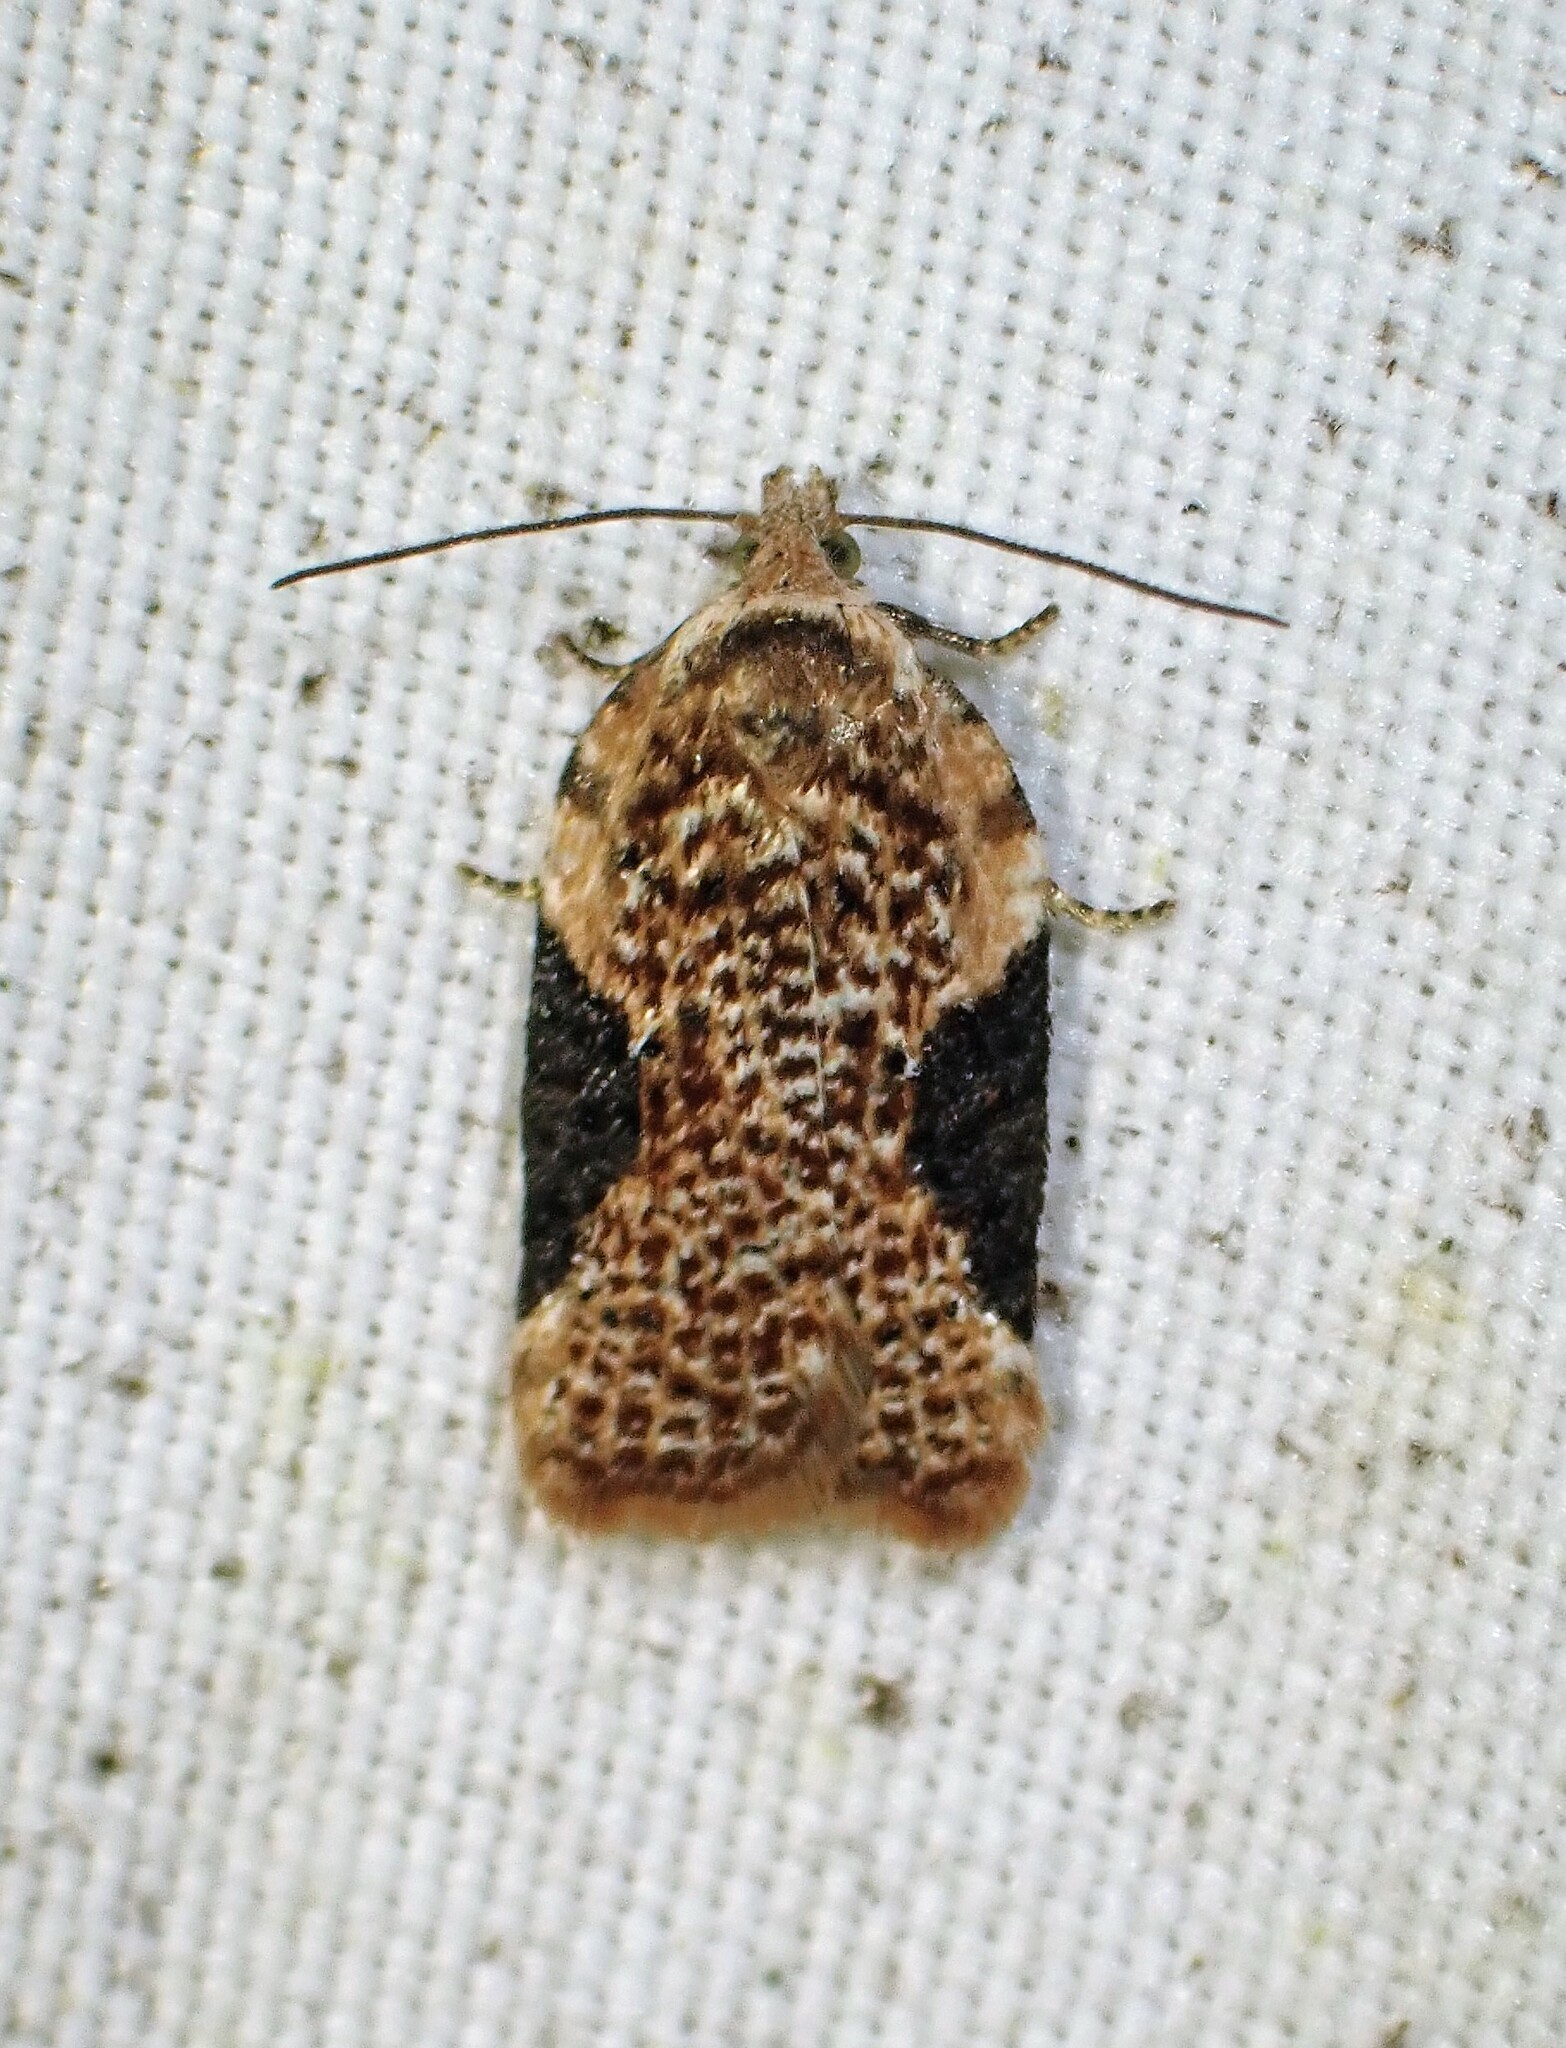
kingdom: Animalia
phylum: Arthropoda
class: Insecta
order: Lepidoptera
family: Tortricidae
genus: Acleris
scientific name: Acleris braunana
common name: Alder leafroller
